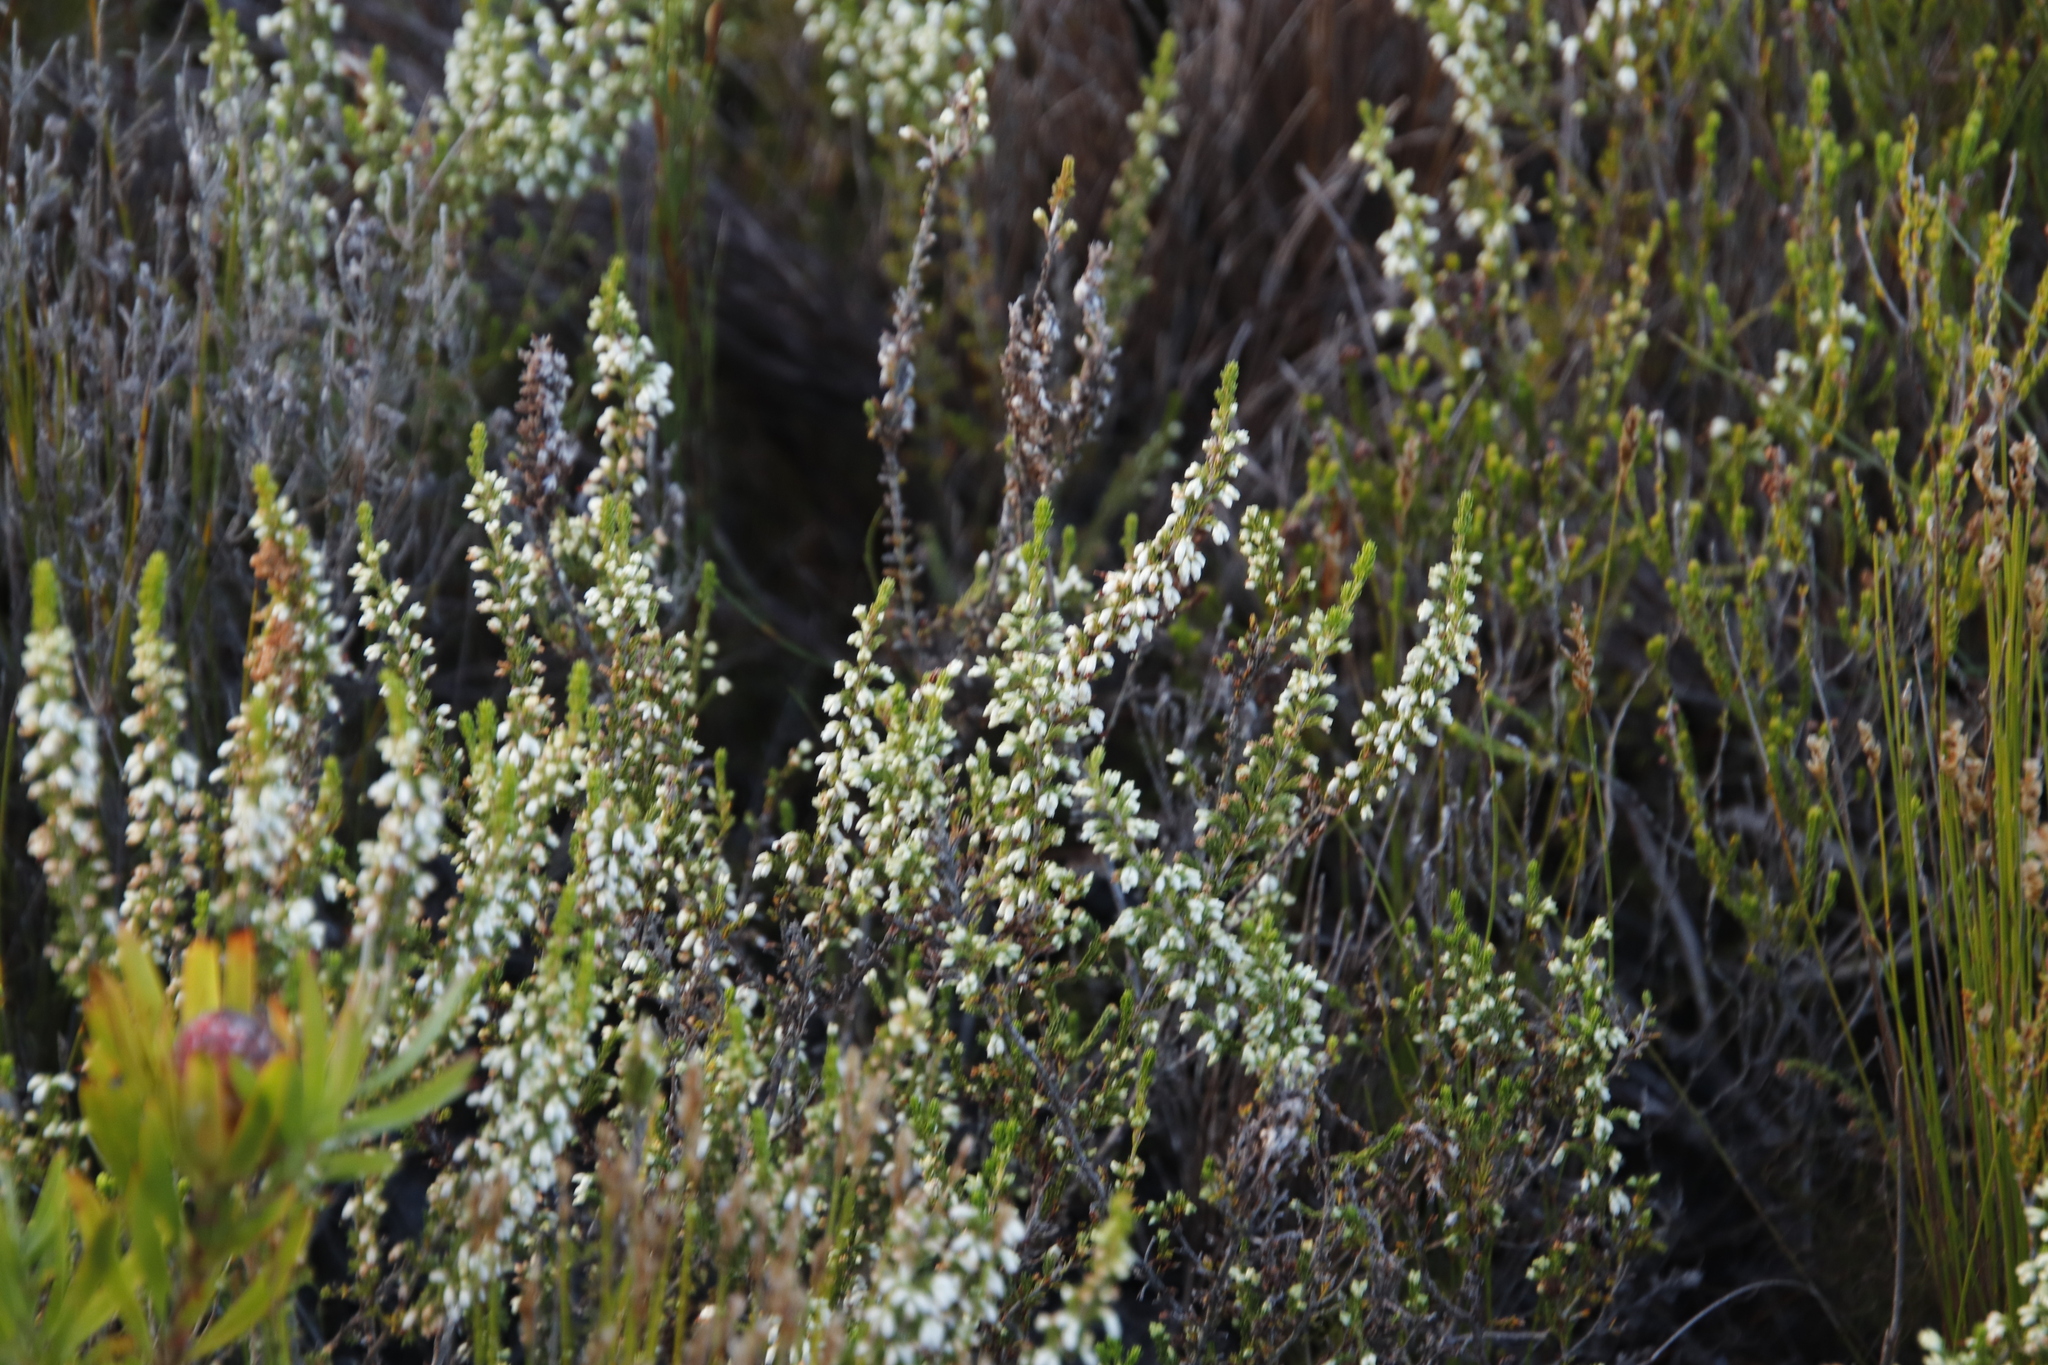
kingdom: Plantae
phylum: Tracheophyta
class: Magnoliopsida
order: Ericales
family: Ericaceae
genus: Erica
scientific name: Erica imbricata
